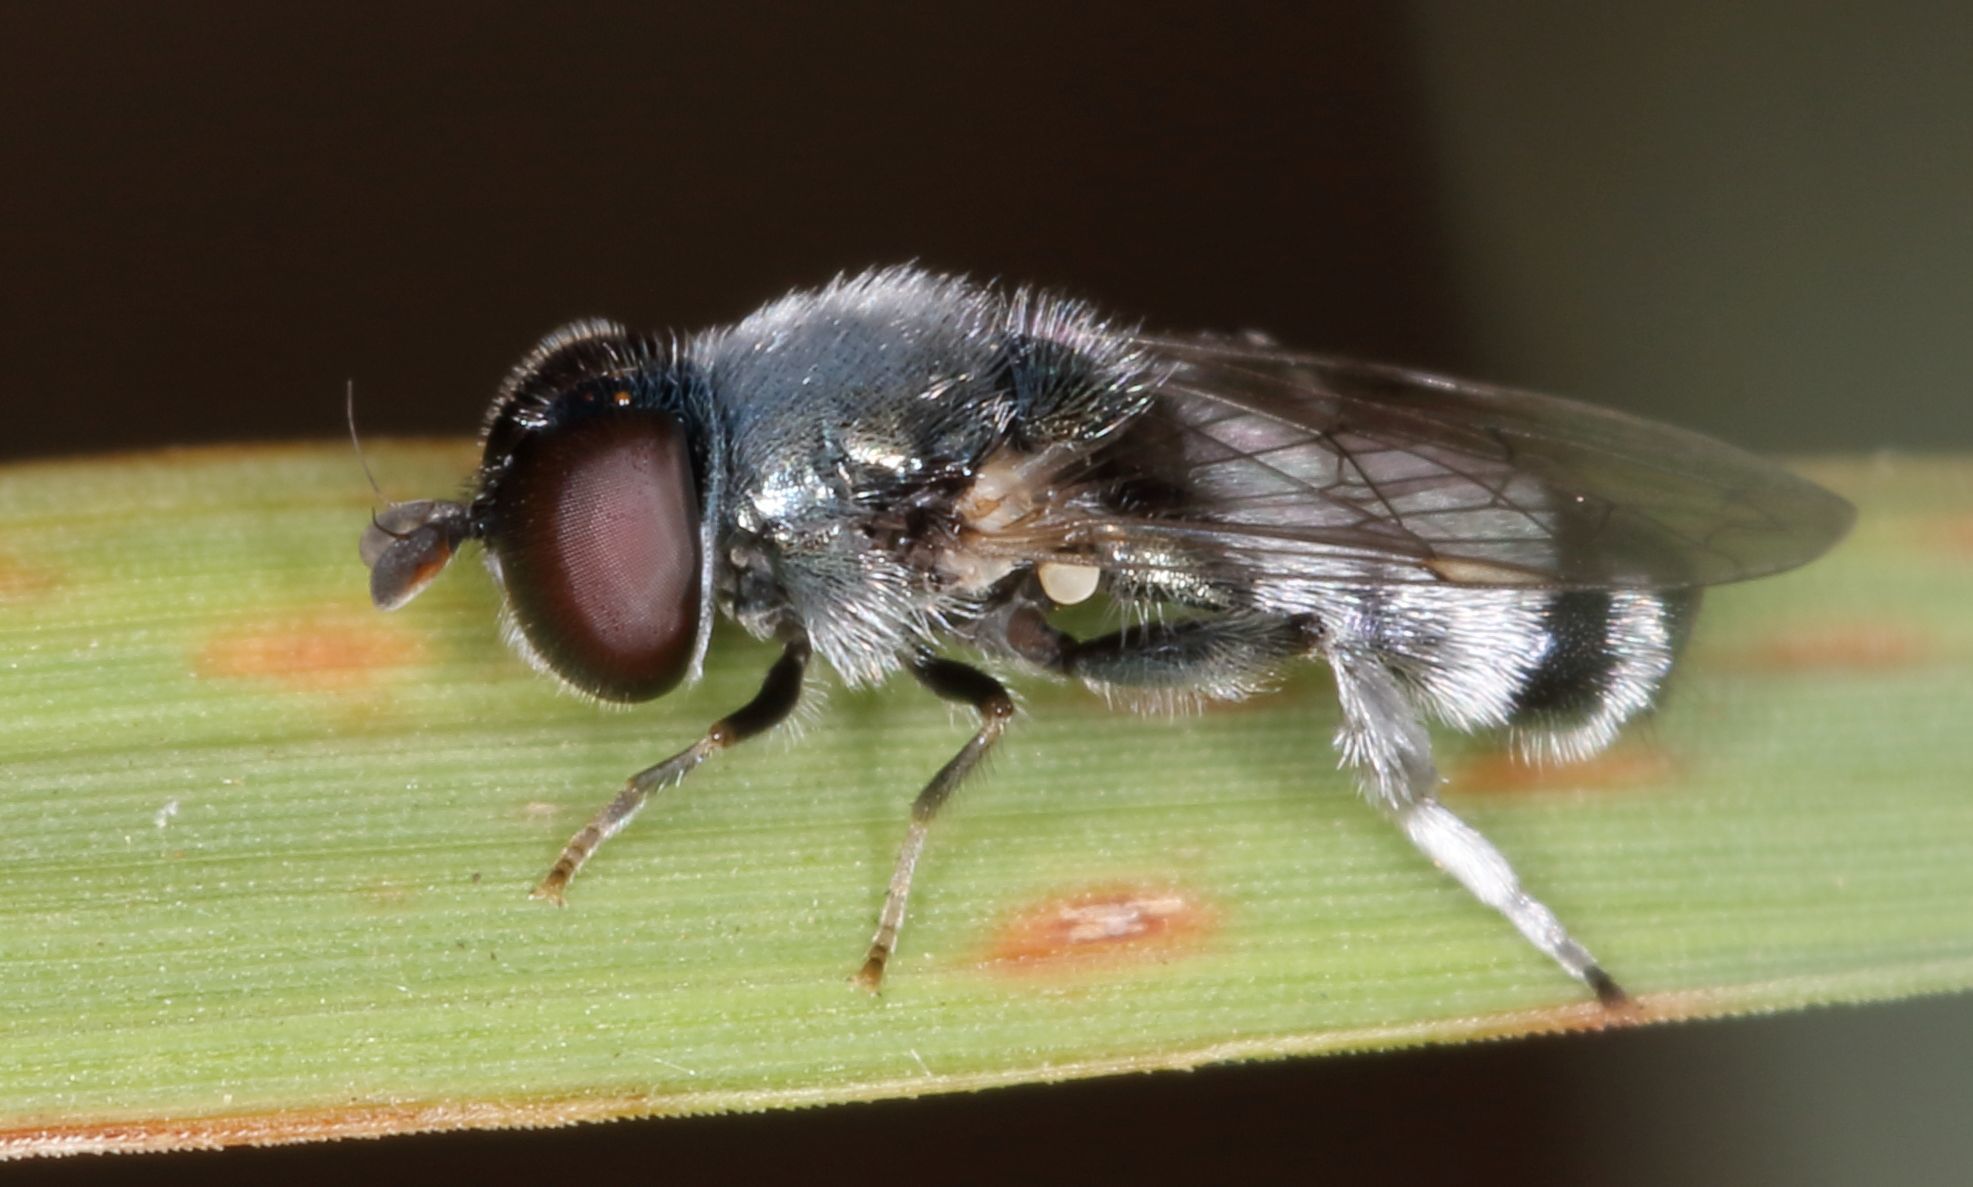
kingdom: Animalia
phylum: Arthropoda
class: Insecta
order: Diptera
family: Syrphidae
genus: Eumerus
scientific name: Eumerus paulae
